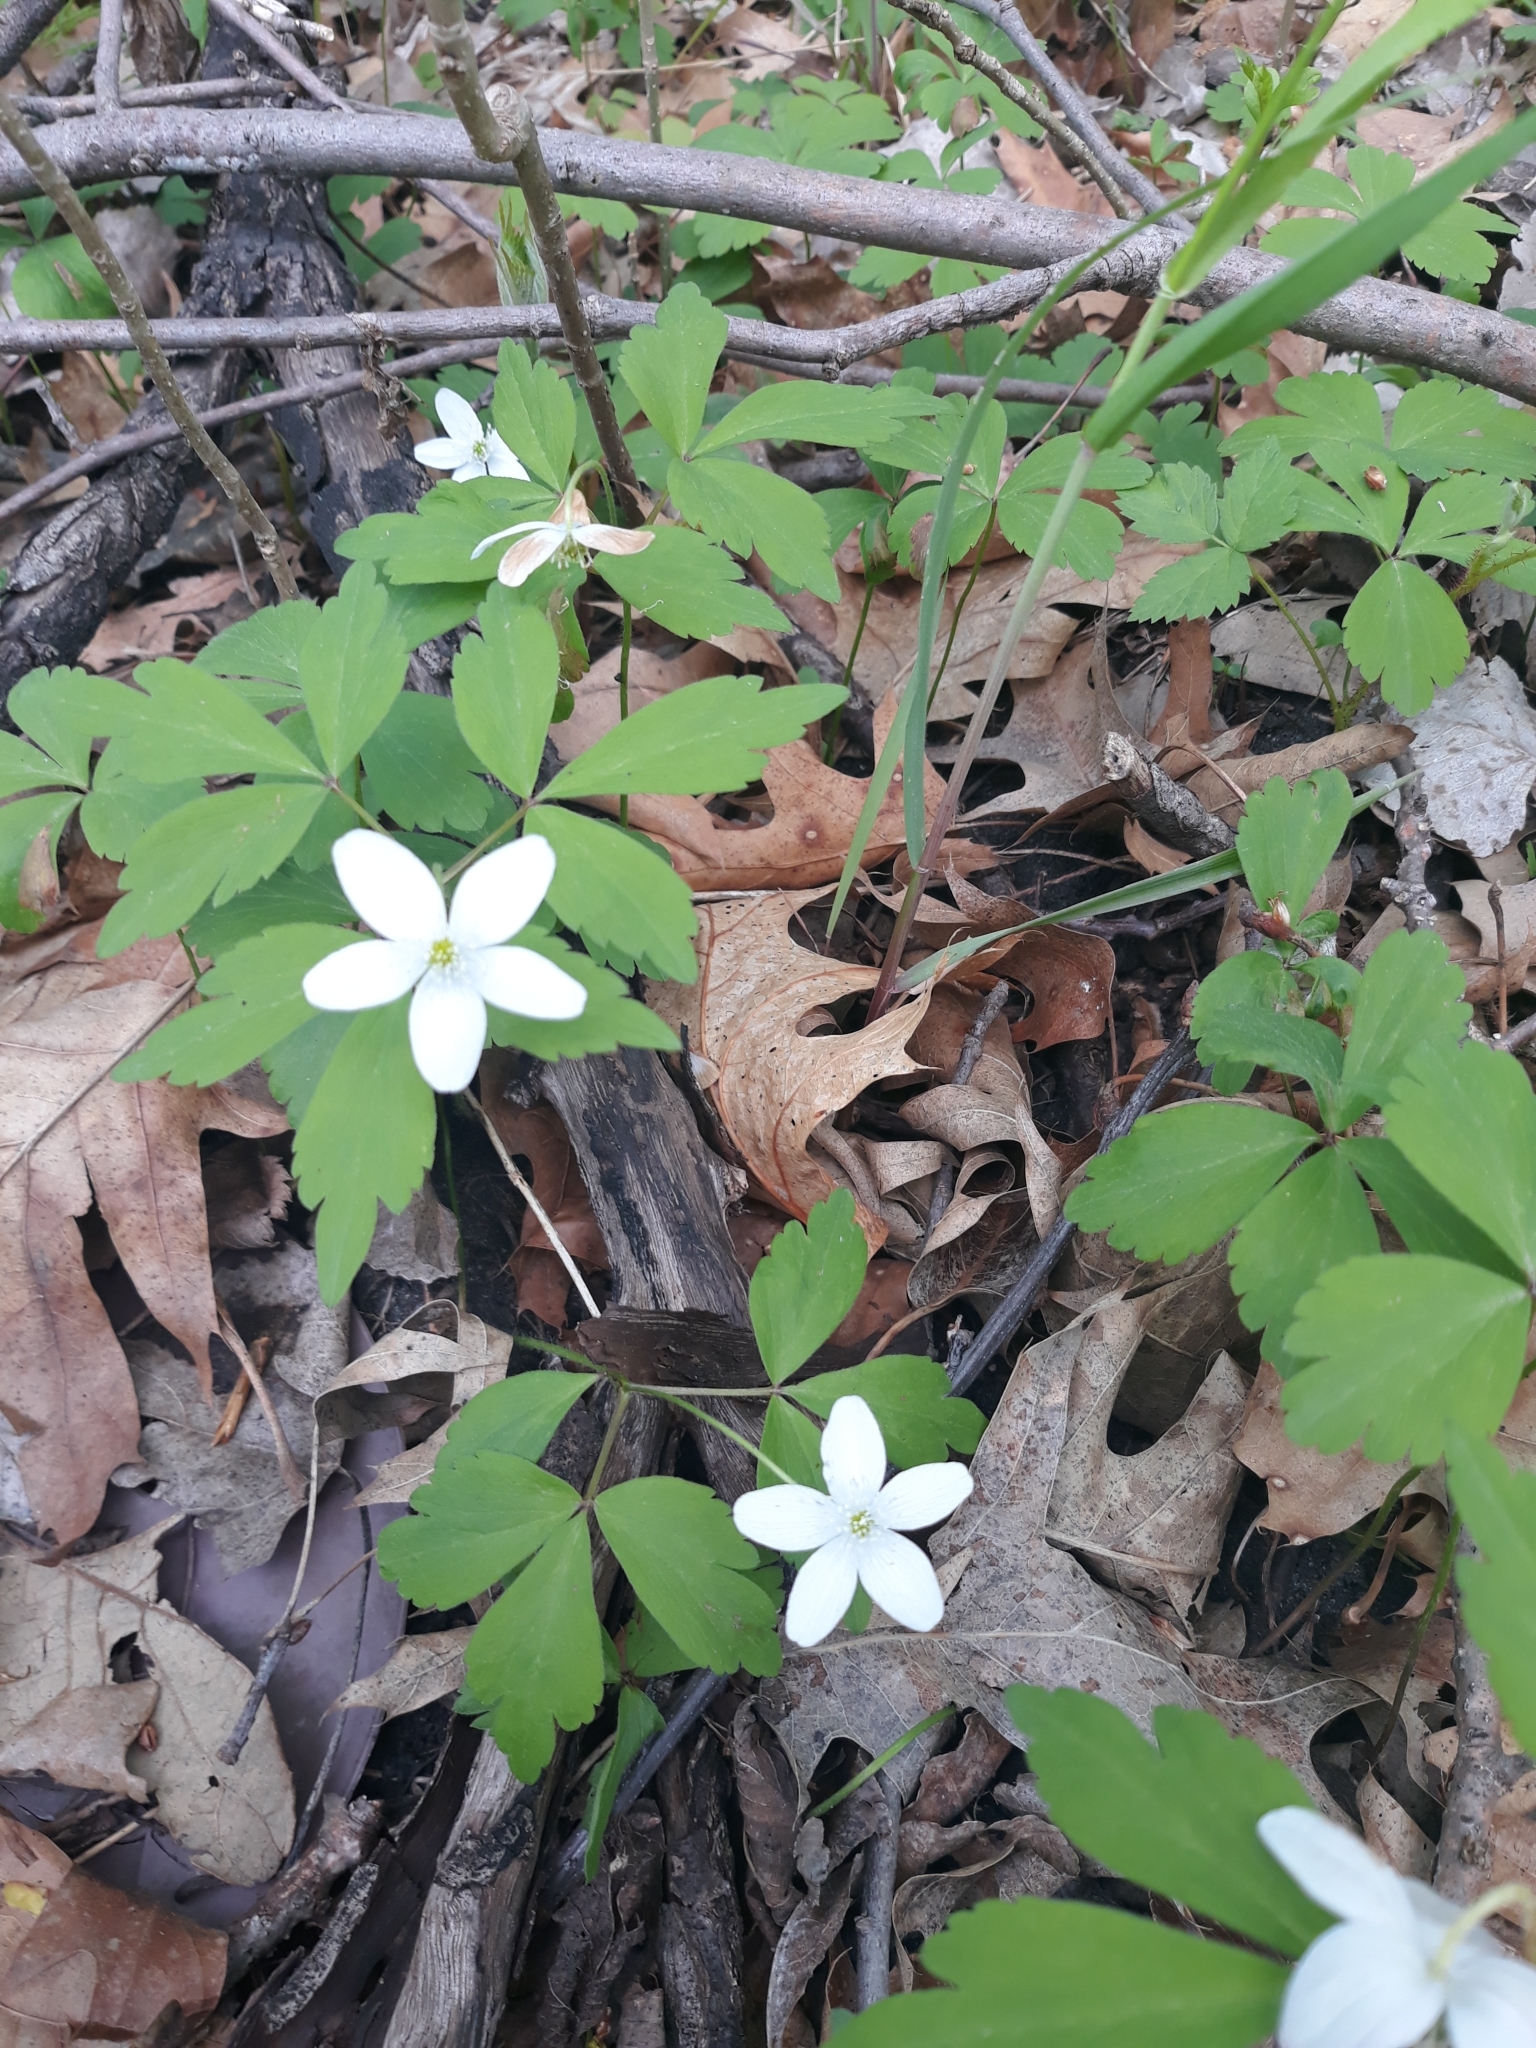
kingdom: Plantae
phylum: Tracheophyta
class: Magnoliopsida
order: Ranunculales
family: Ranunculaceae
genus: Anemone
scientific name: Anemone quinquefolia
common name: Wood anemone
